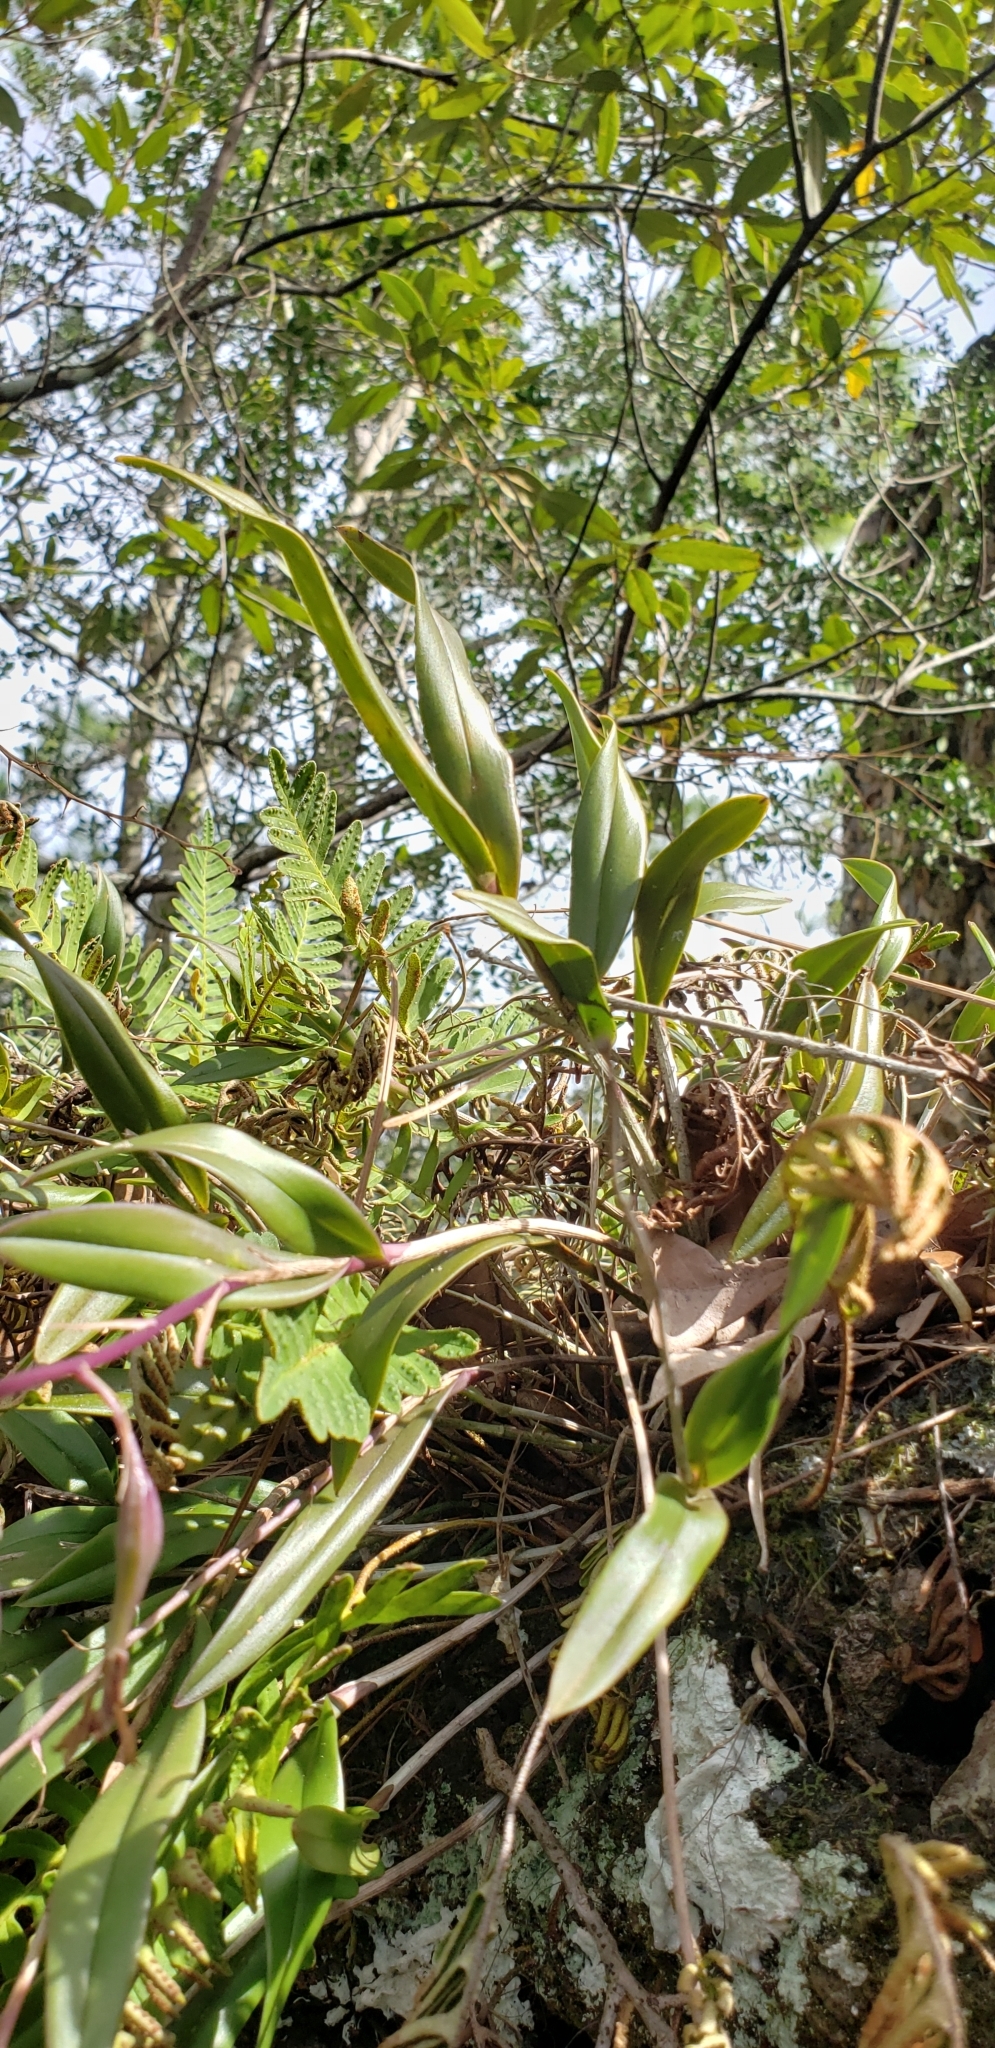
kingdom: Plantae
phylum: Tracheophyta
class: Liliopsida
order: Asparagales
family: Orchidaceae
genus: Epidendrum
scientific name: Epidendrum conopseum
